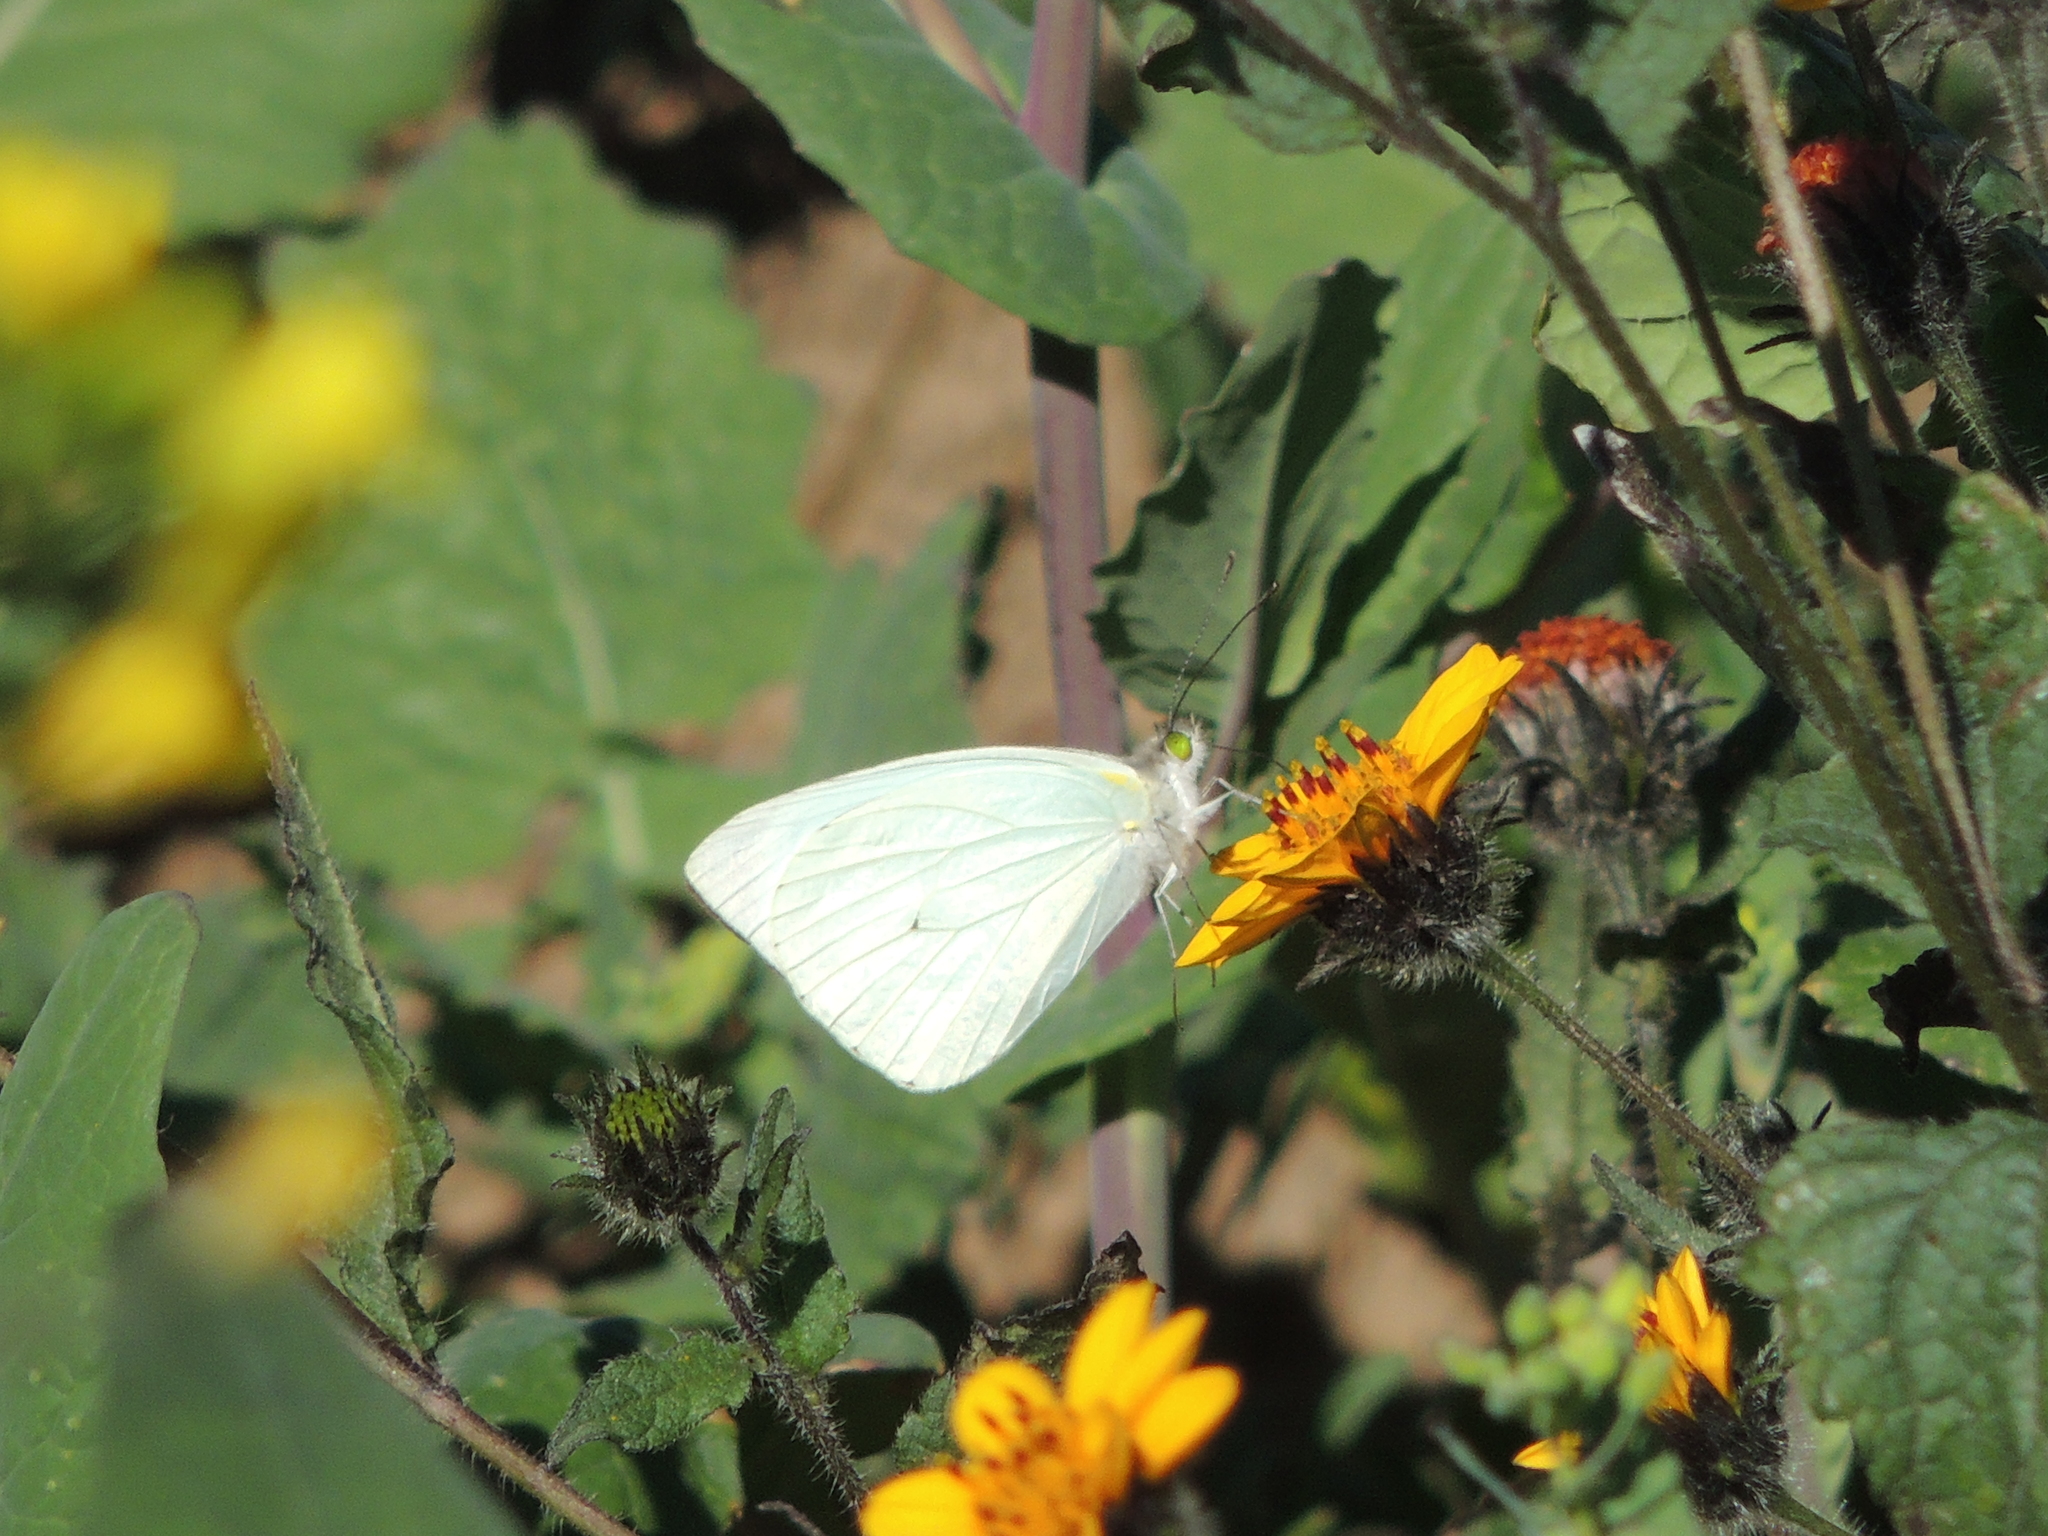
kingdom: Animalia
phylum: Arthropoda
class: Insecta
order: Lepidoptera
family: Pieridae
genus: Leptophobia
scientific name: Leptophobia aripa
